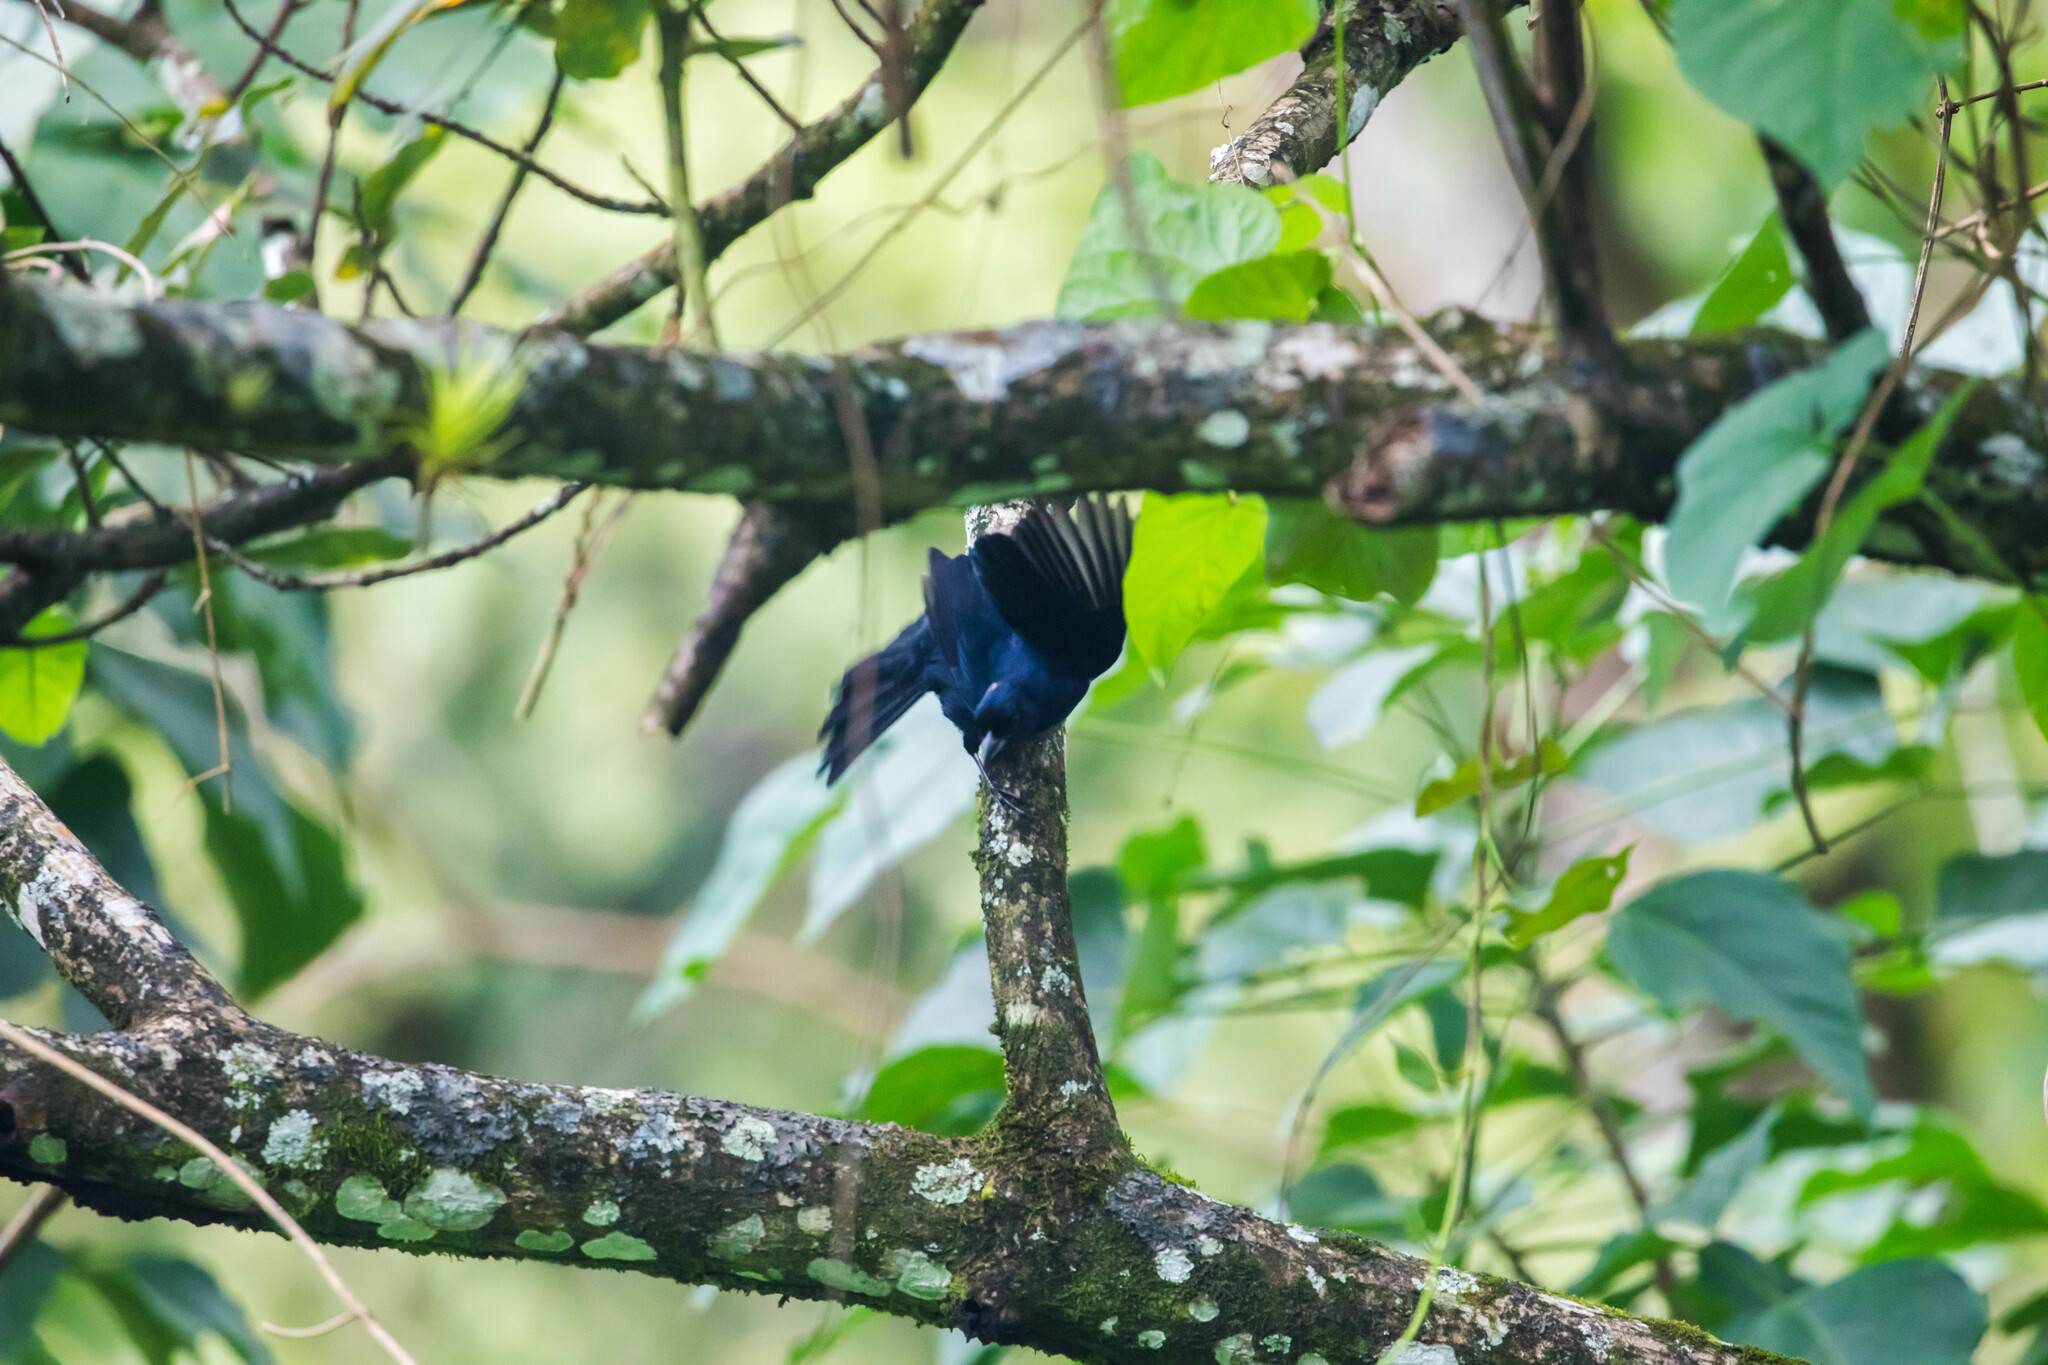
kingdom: Animalia
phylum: Chordata
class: Aves
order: Passeriformes
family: Thraupidae
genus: Tachyphonus
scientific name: Tachyphonus rufus
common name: White-lined tanager
